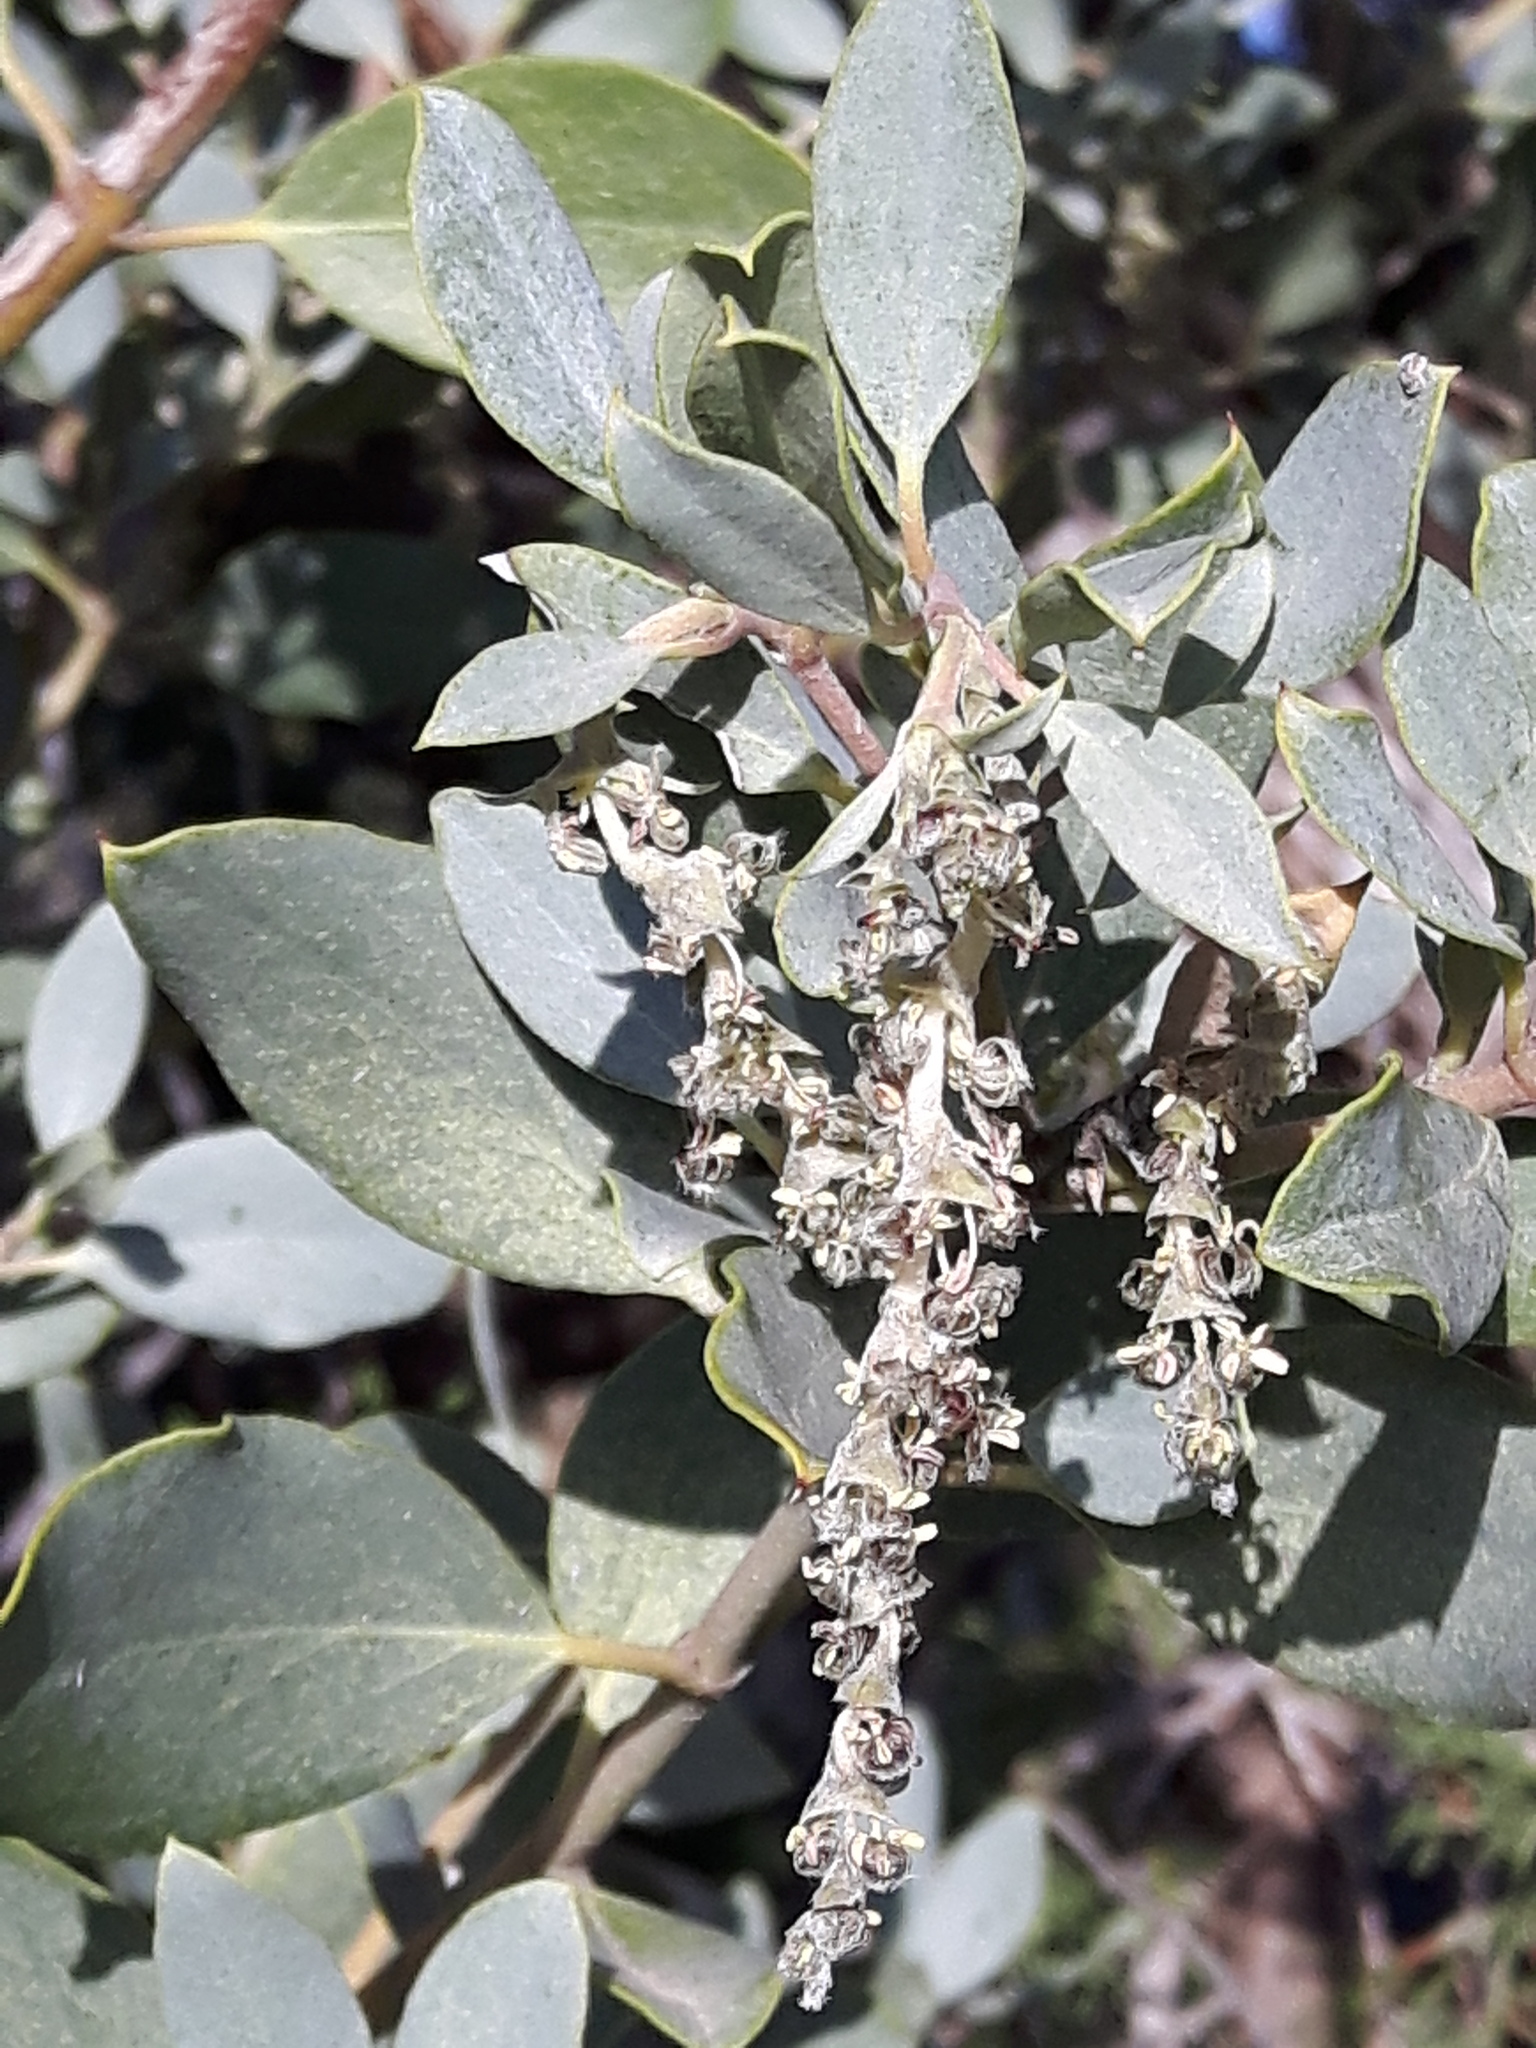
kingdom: Plantae
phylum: Tracheophyta
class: Magnoliopsida
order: Garryales
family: Garryaceae
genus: Garrya
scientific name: Garrya flavescens
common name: Ashy silk-tassel
